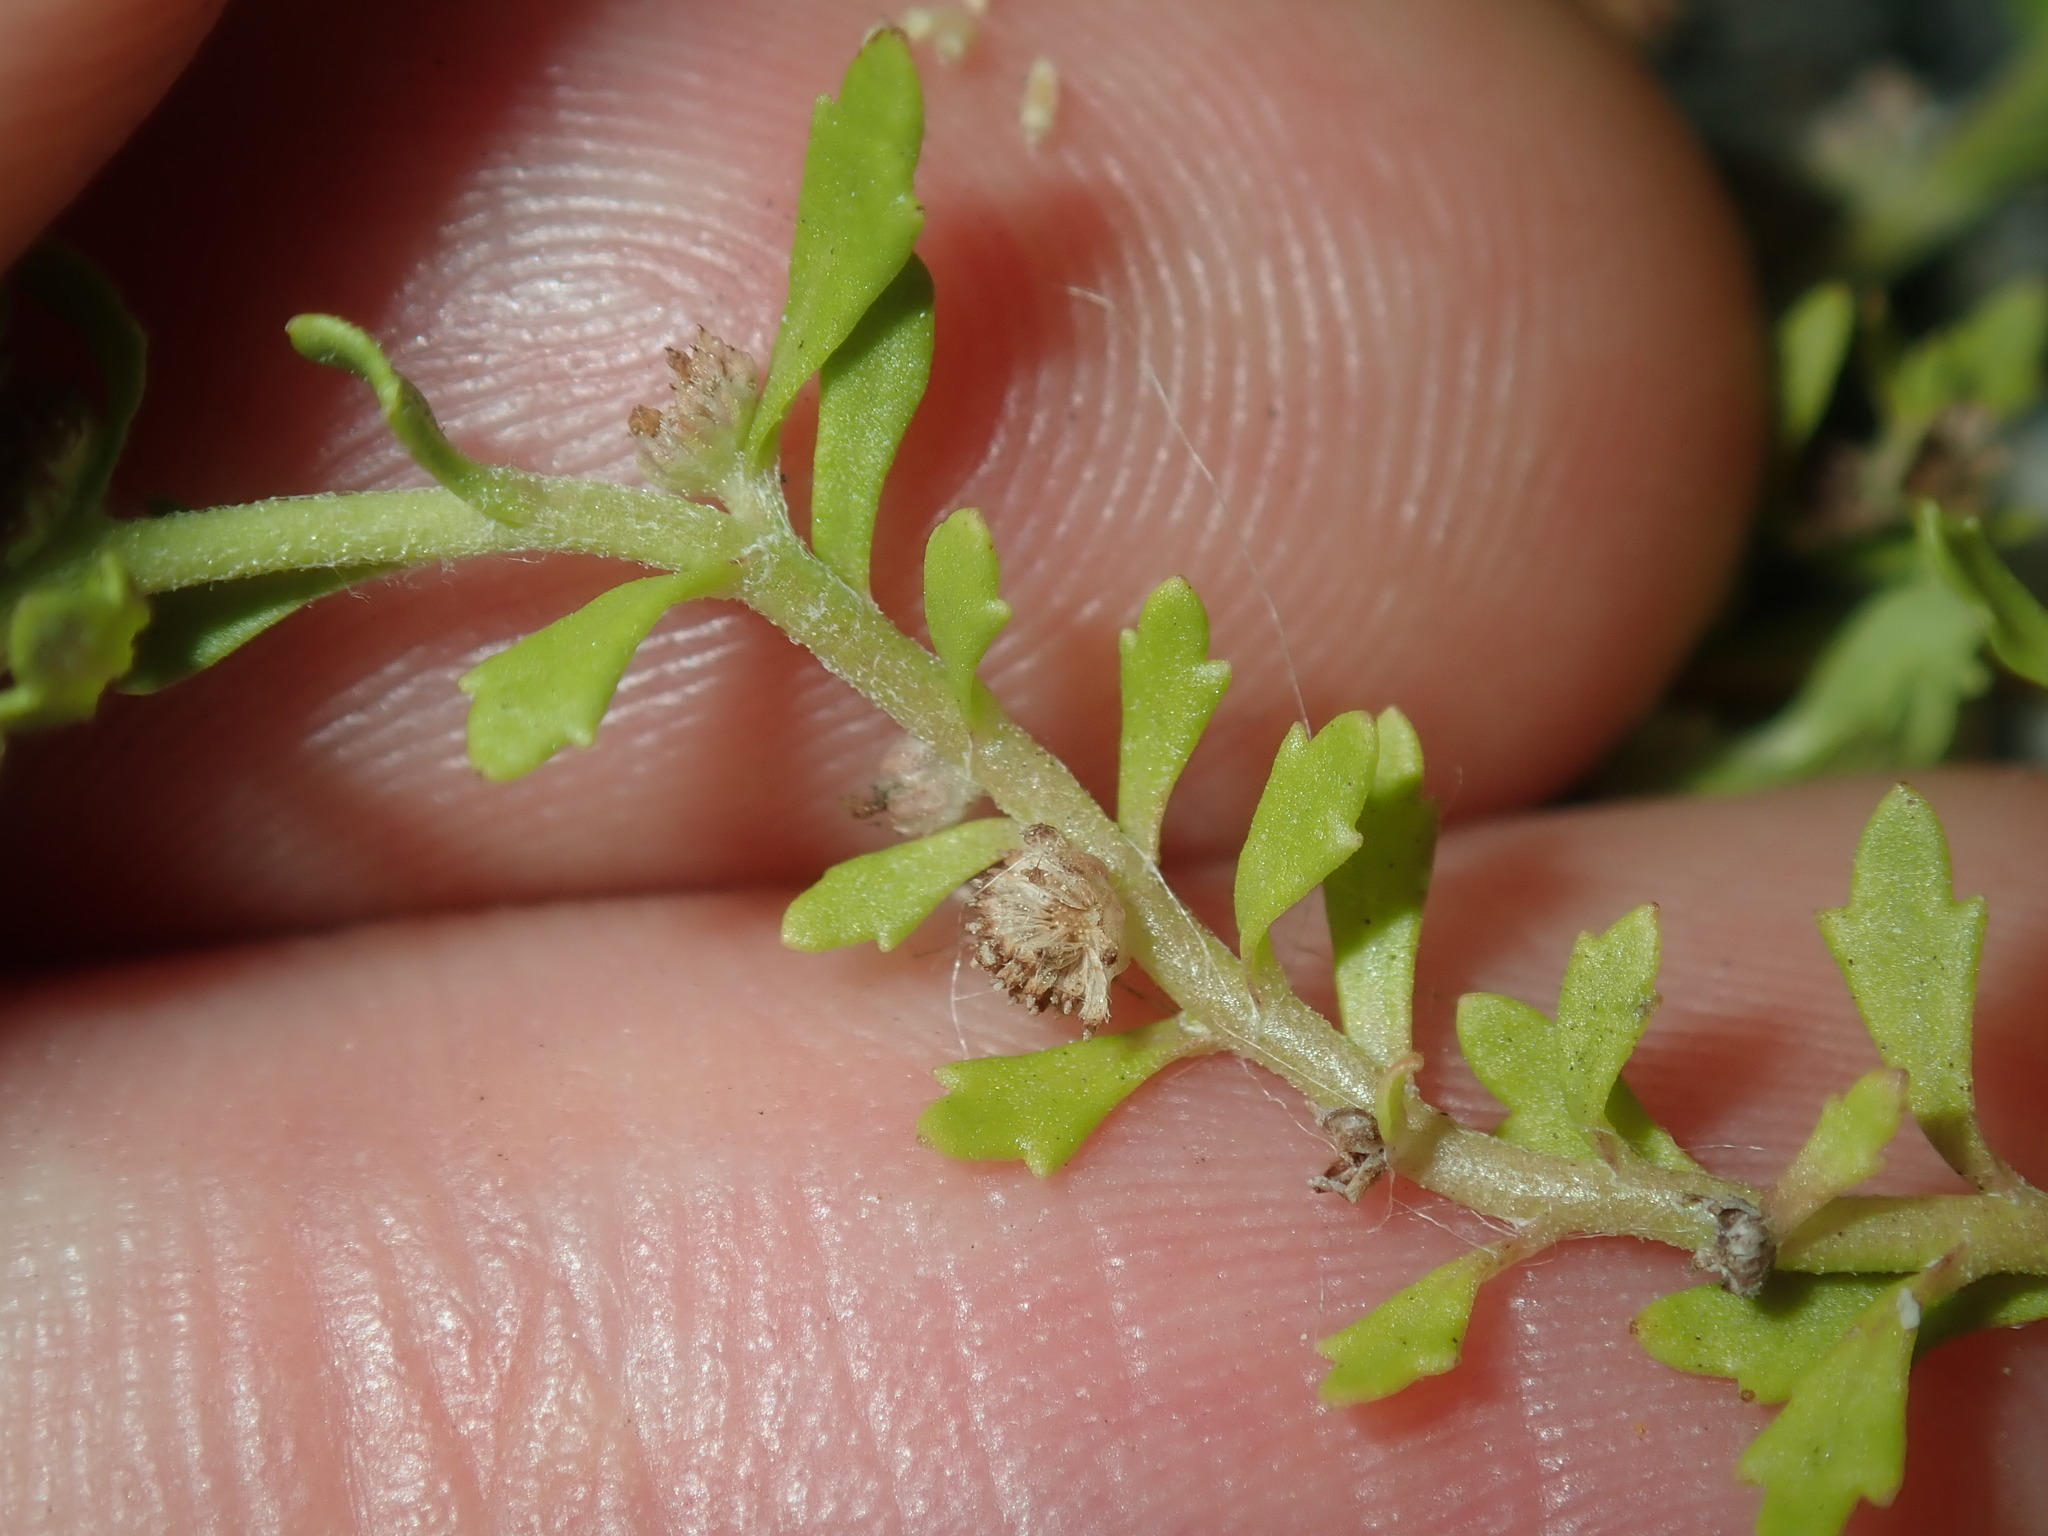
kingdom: Plantae
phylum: Tracheophyta
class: Magnoliopsida
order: Asterales
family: Asteraceae
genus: Centipeda
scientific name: Centipeda minima
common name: Spreading sneezeweed
